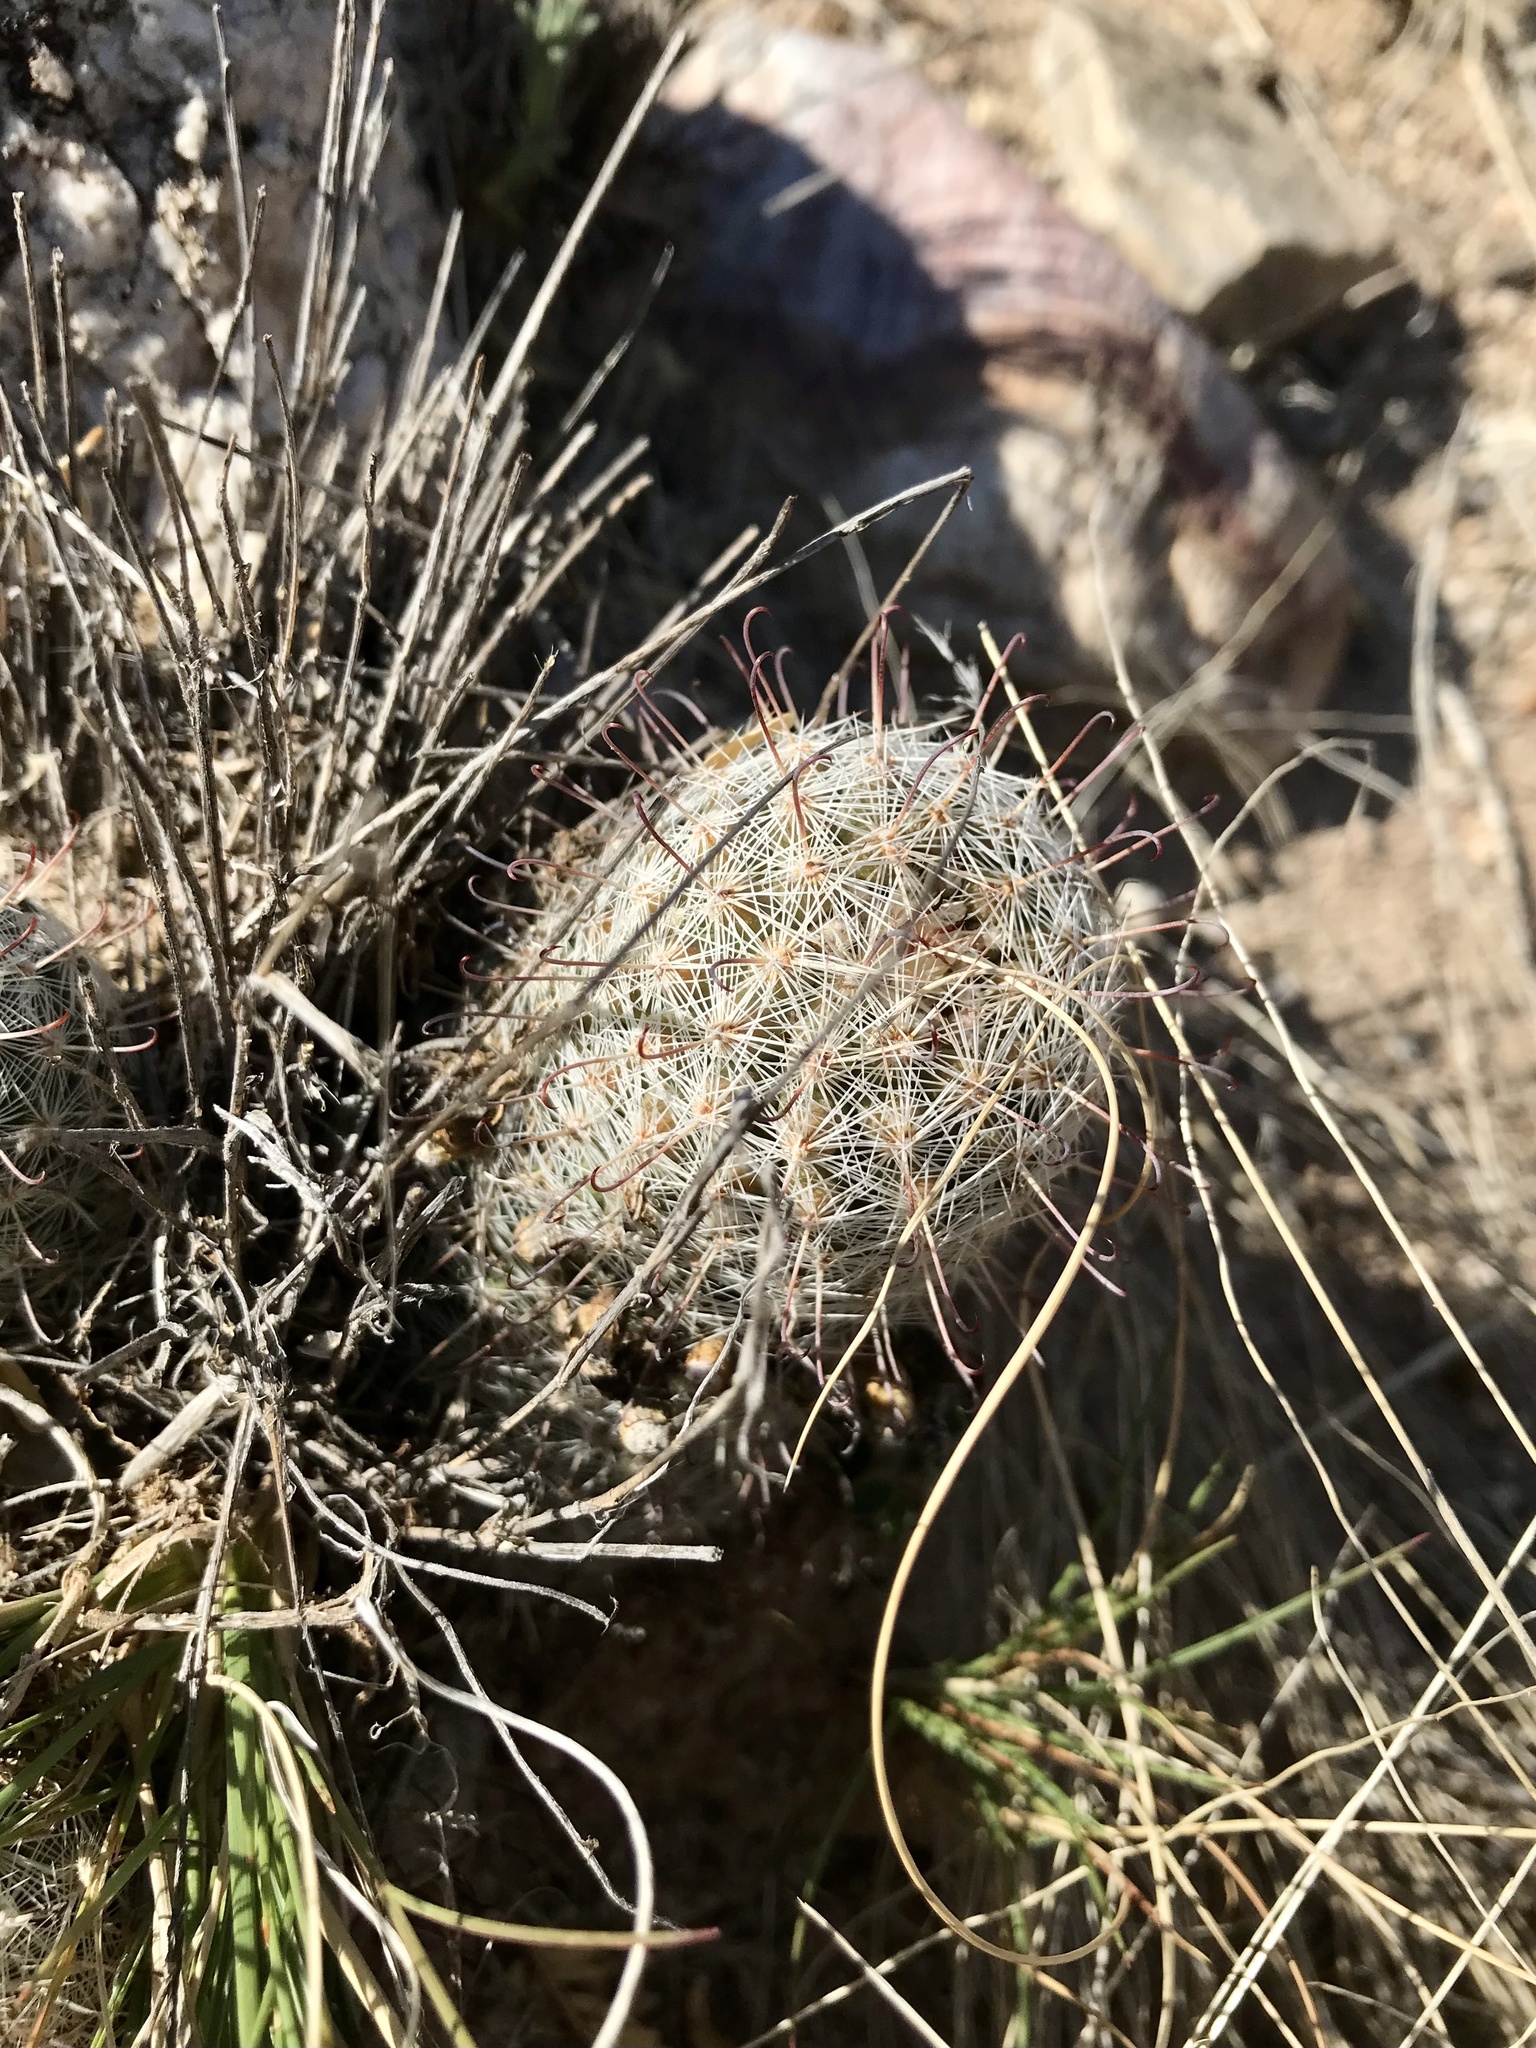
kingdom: Plantae
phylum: Tracheophyta
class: Magnoliopsida
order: Caryophyllales
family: Cactaceae
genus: Cochemiea
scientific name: Cochemiea grahamii
